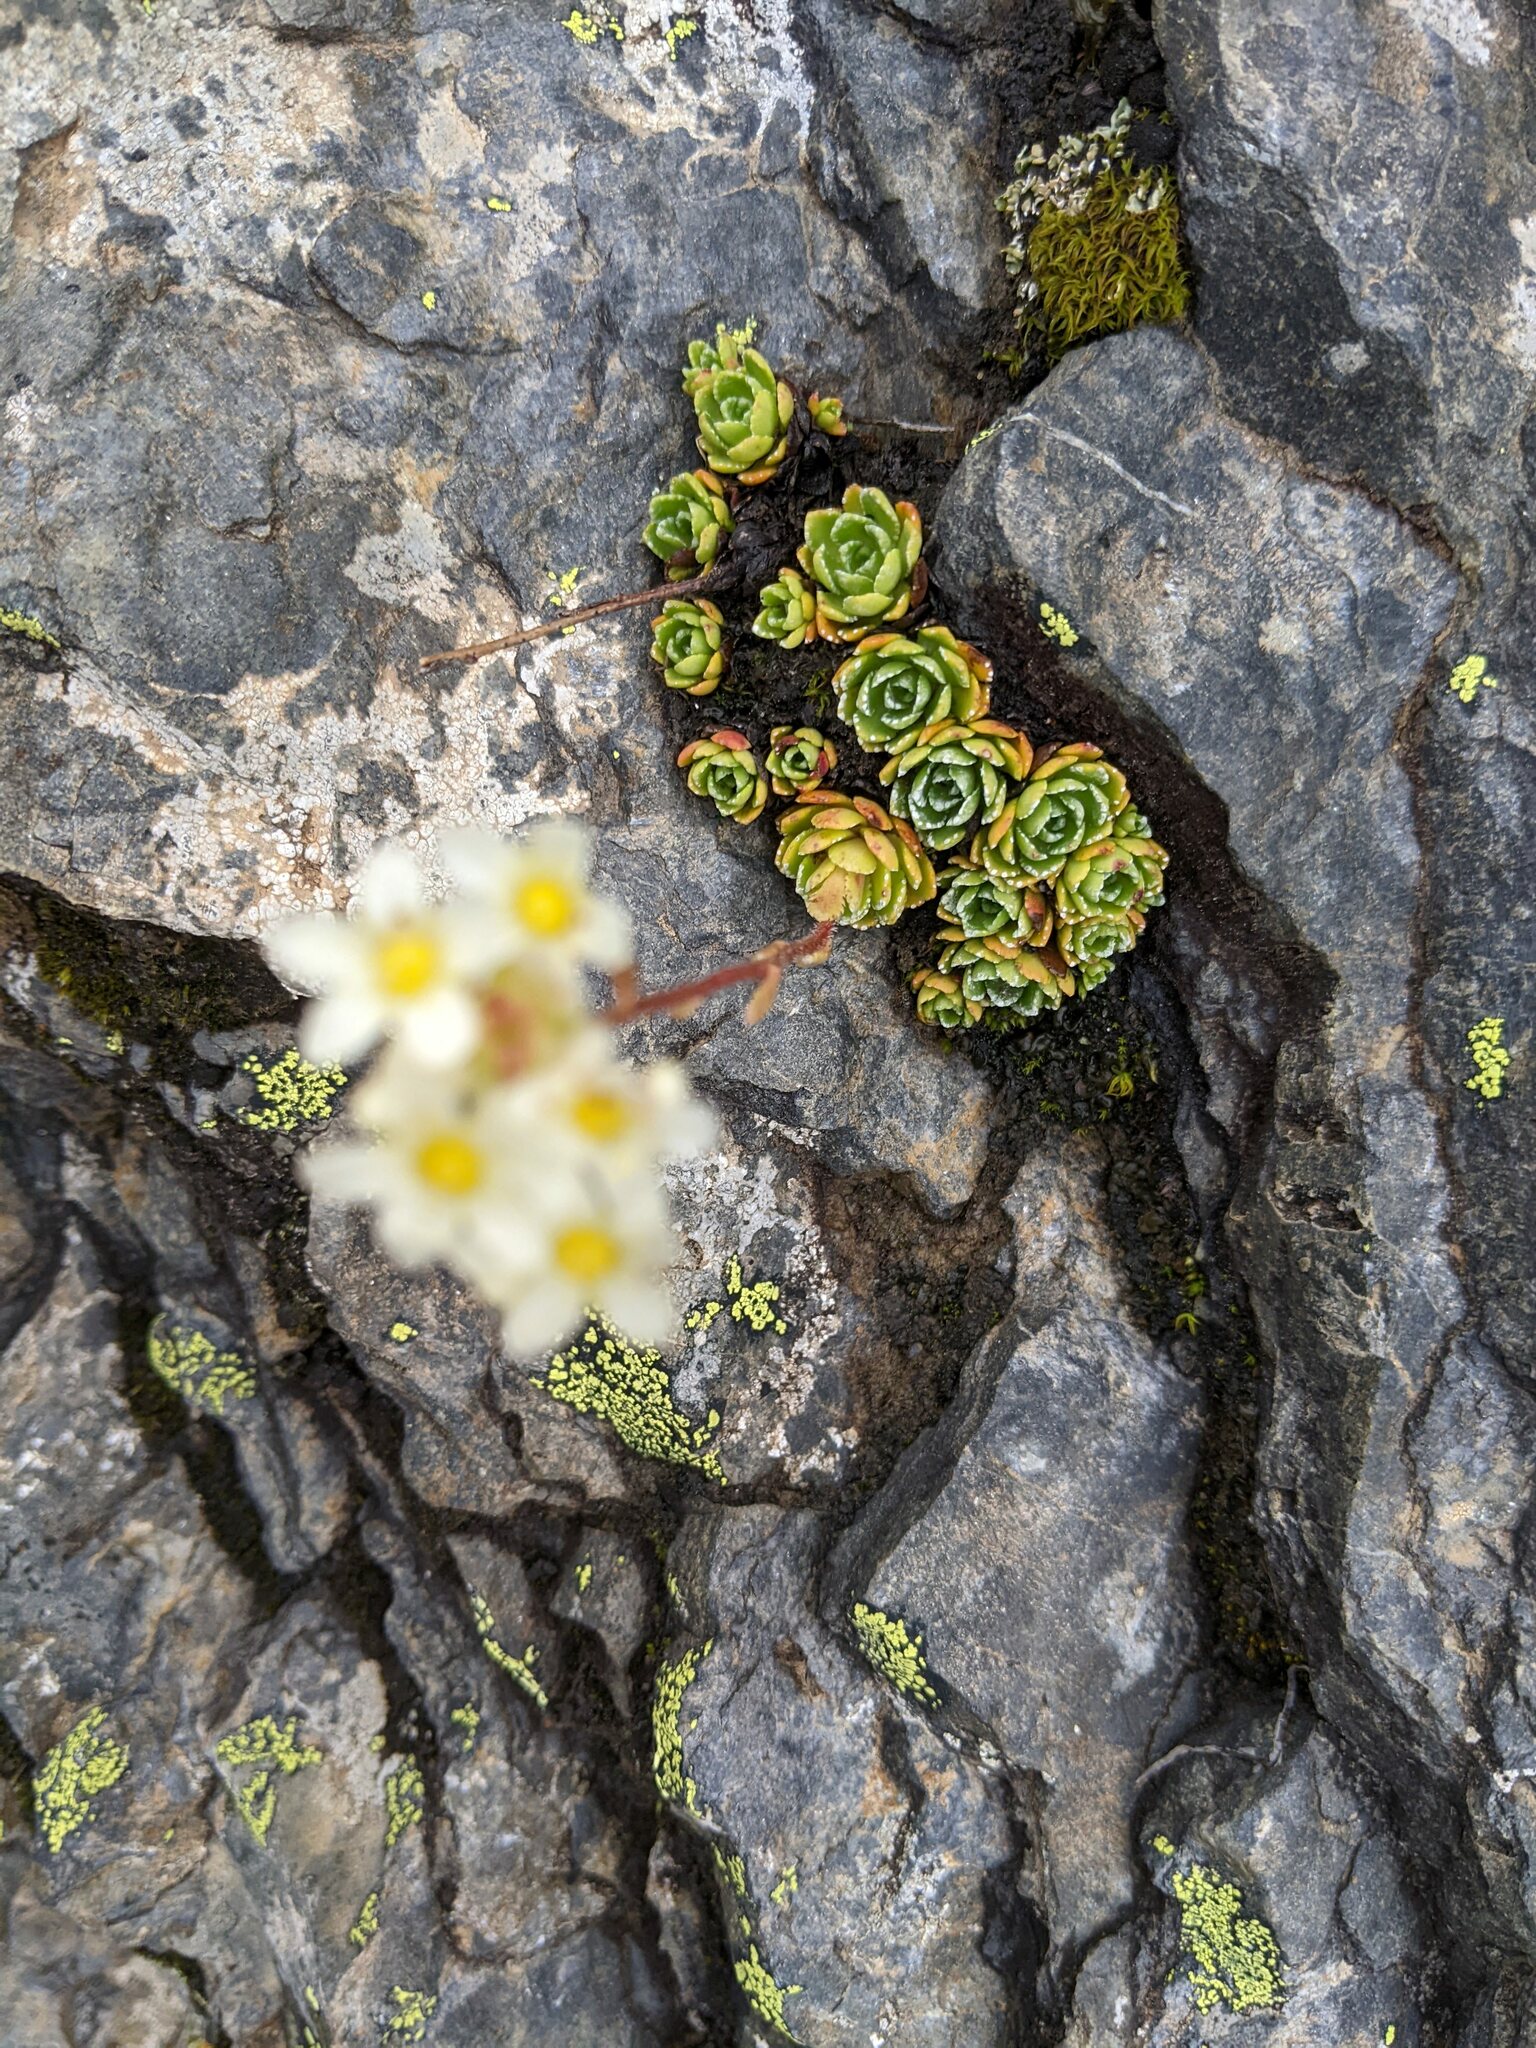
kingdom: Plantae
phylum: Tracheophyta
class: Magnoliopsida
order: Saxifragales
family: Saxifragaceae
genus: Saxifraga
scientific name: Saxifraga paniculata
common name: Livelong saxifrage
